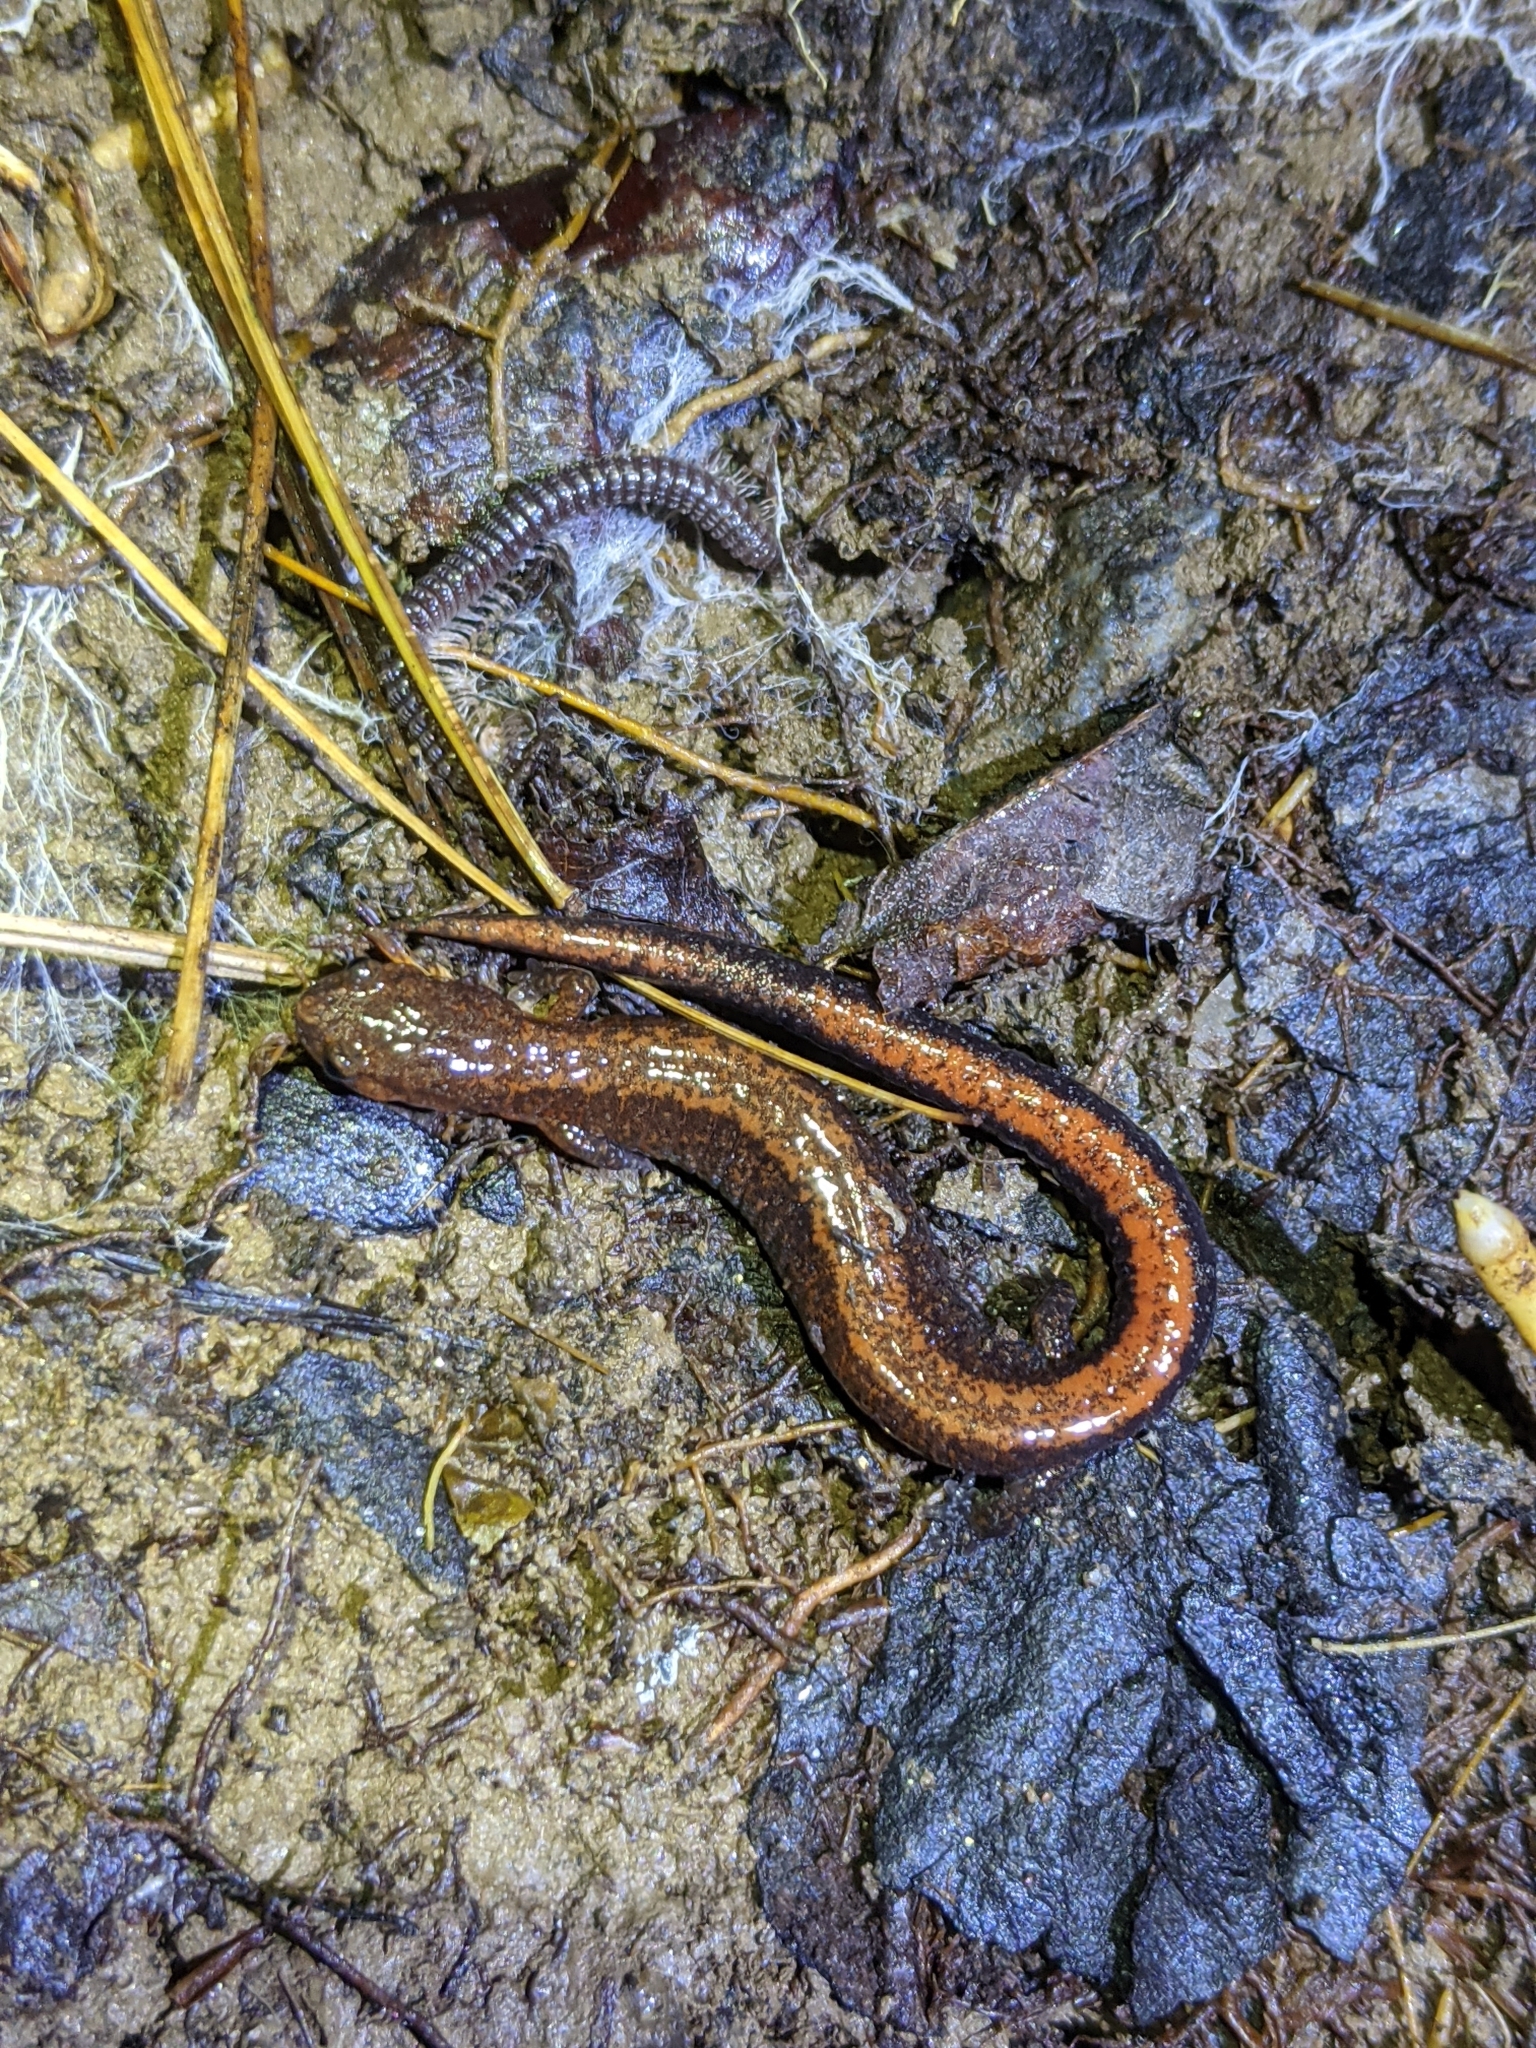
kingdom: Animalia
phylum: Chordata
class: Amphibia
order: Caudata
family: Plethodontidae
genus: Plethodon
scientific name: Plethodon serratus
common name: Southern red-backed salamander
